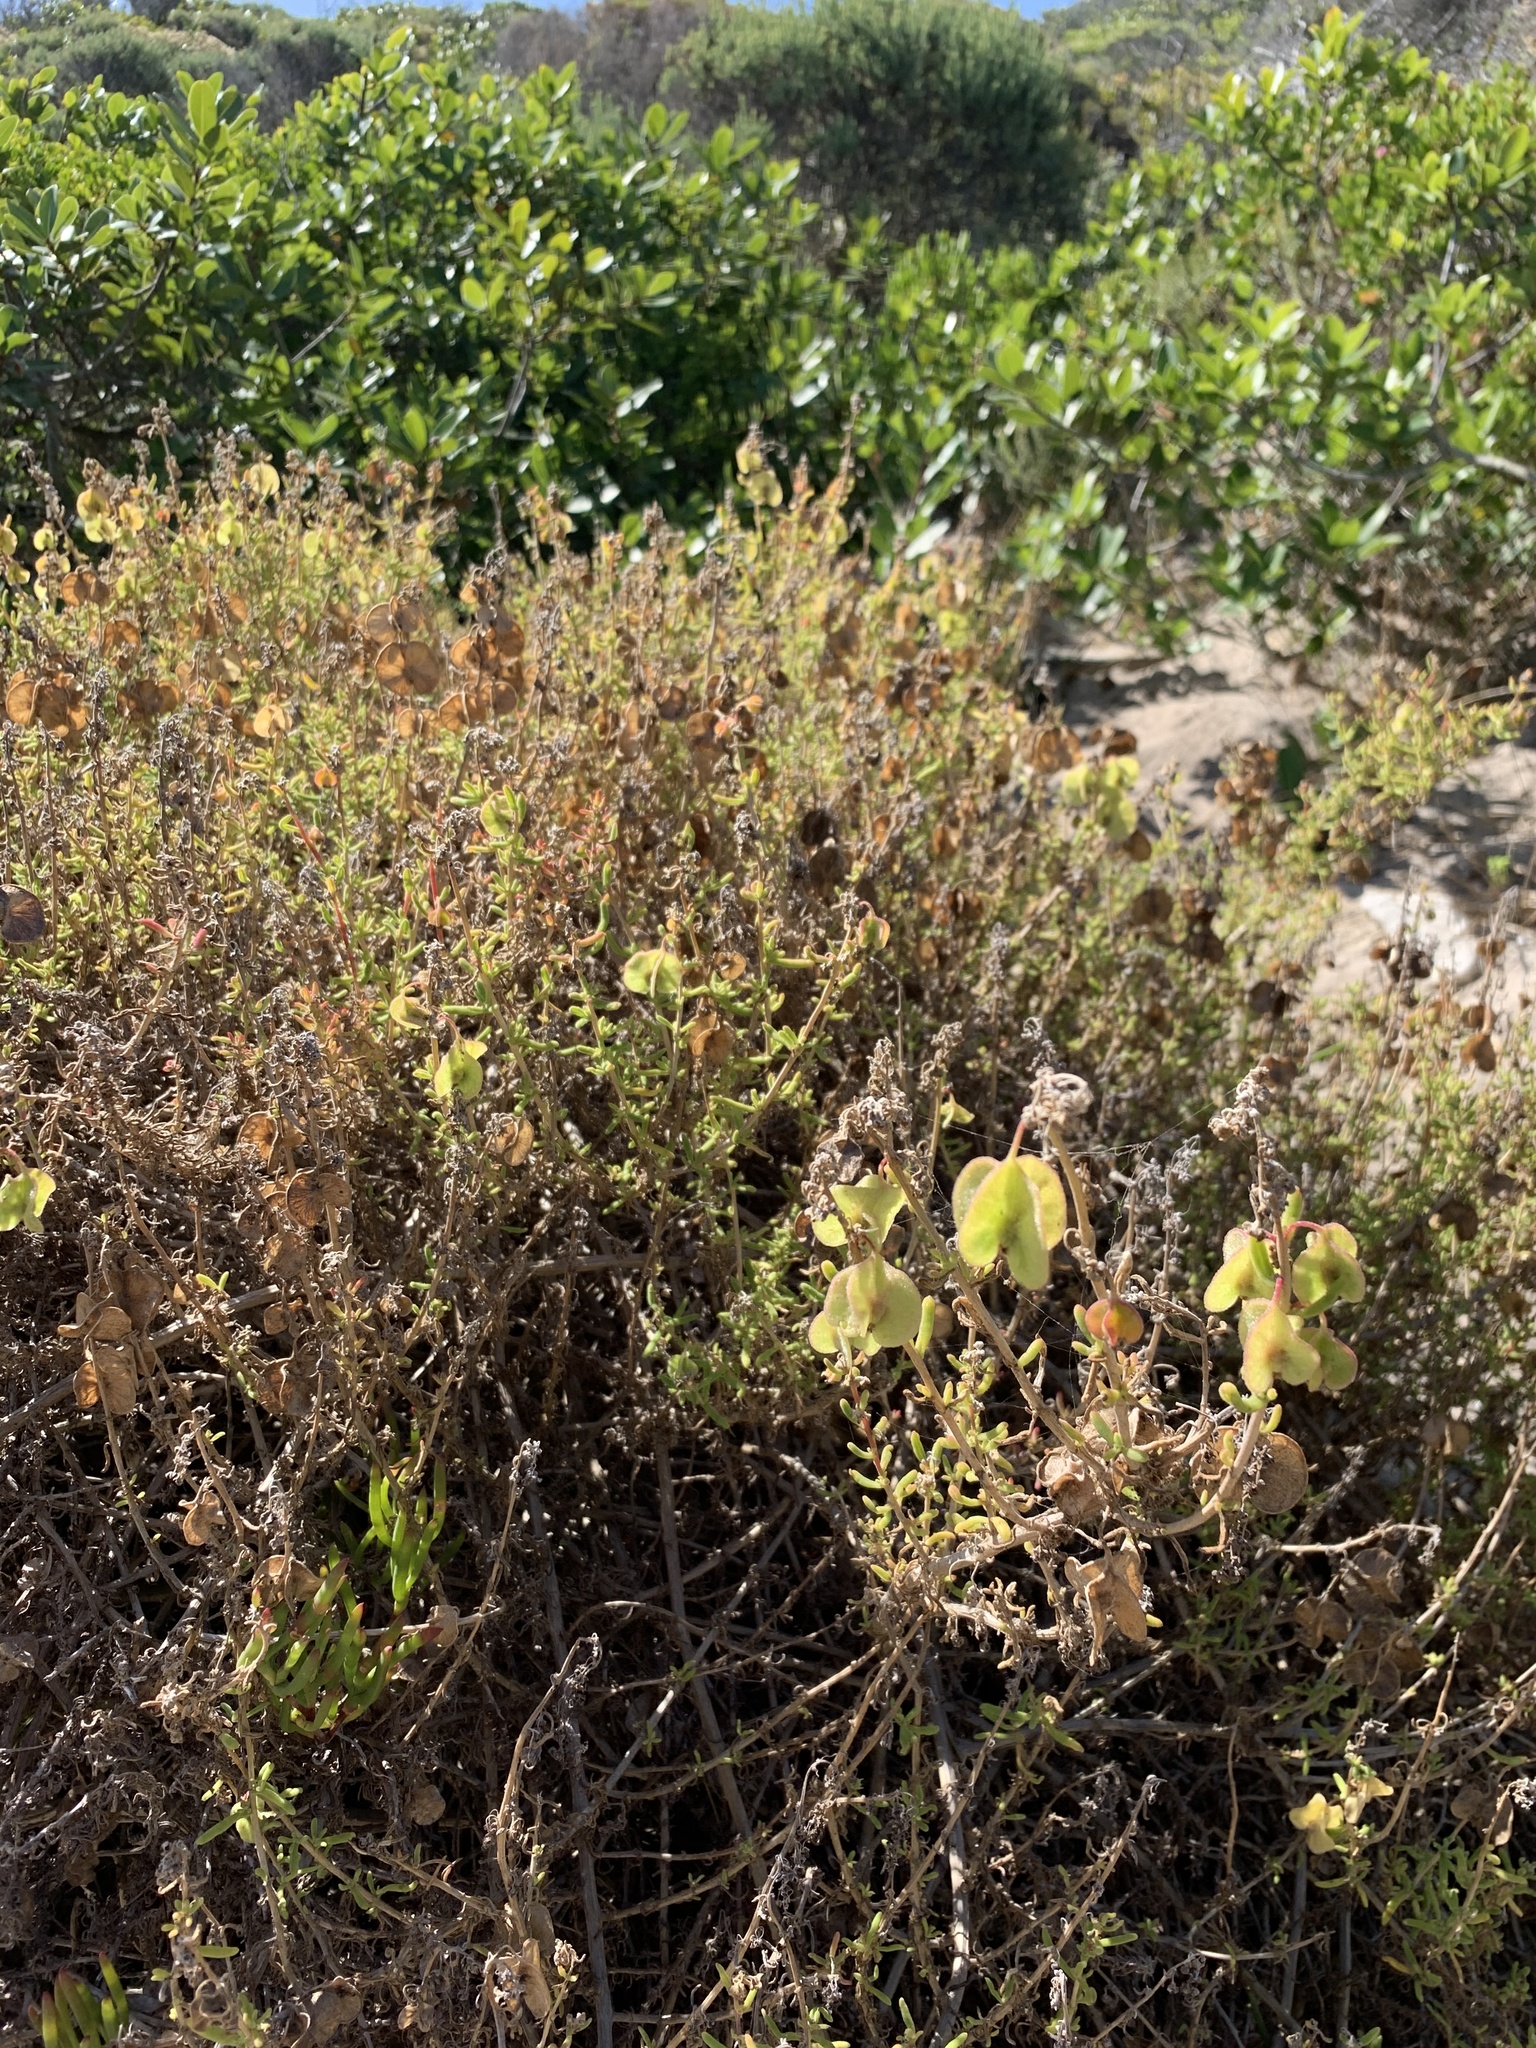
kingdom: Plantae
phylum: Tracheophyta
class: Magnoliopsida
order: Caryophyllales
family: Aizoaceae
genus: Tetragonia
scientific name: Tetragonia fruticosa
